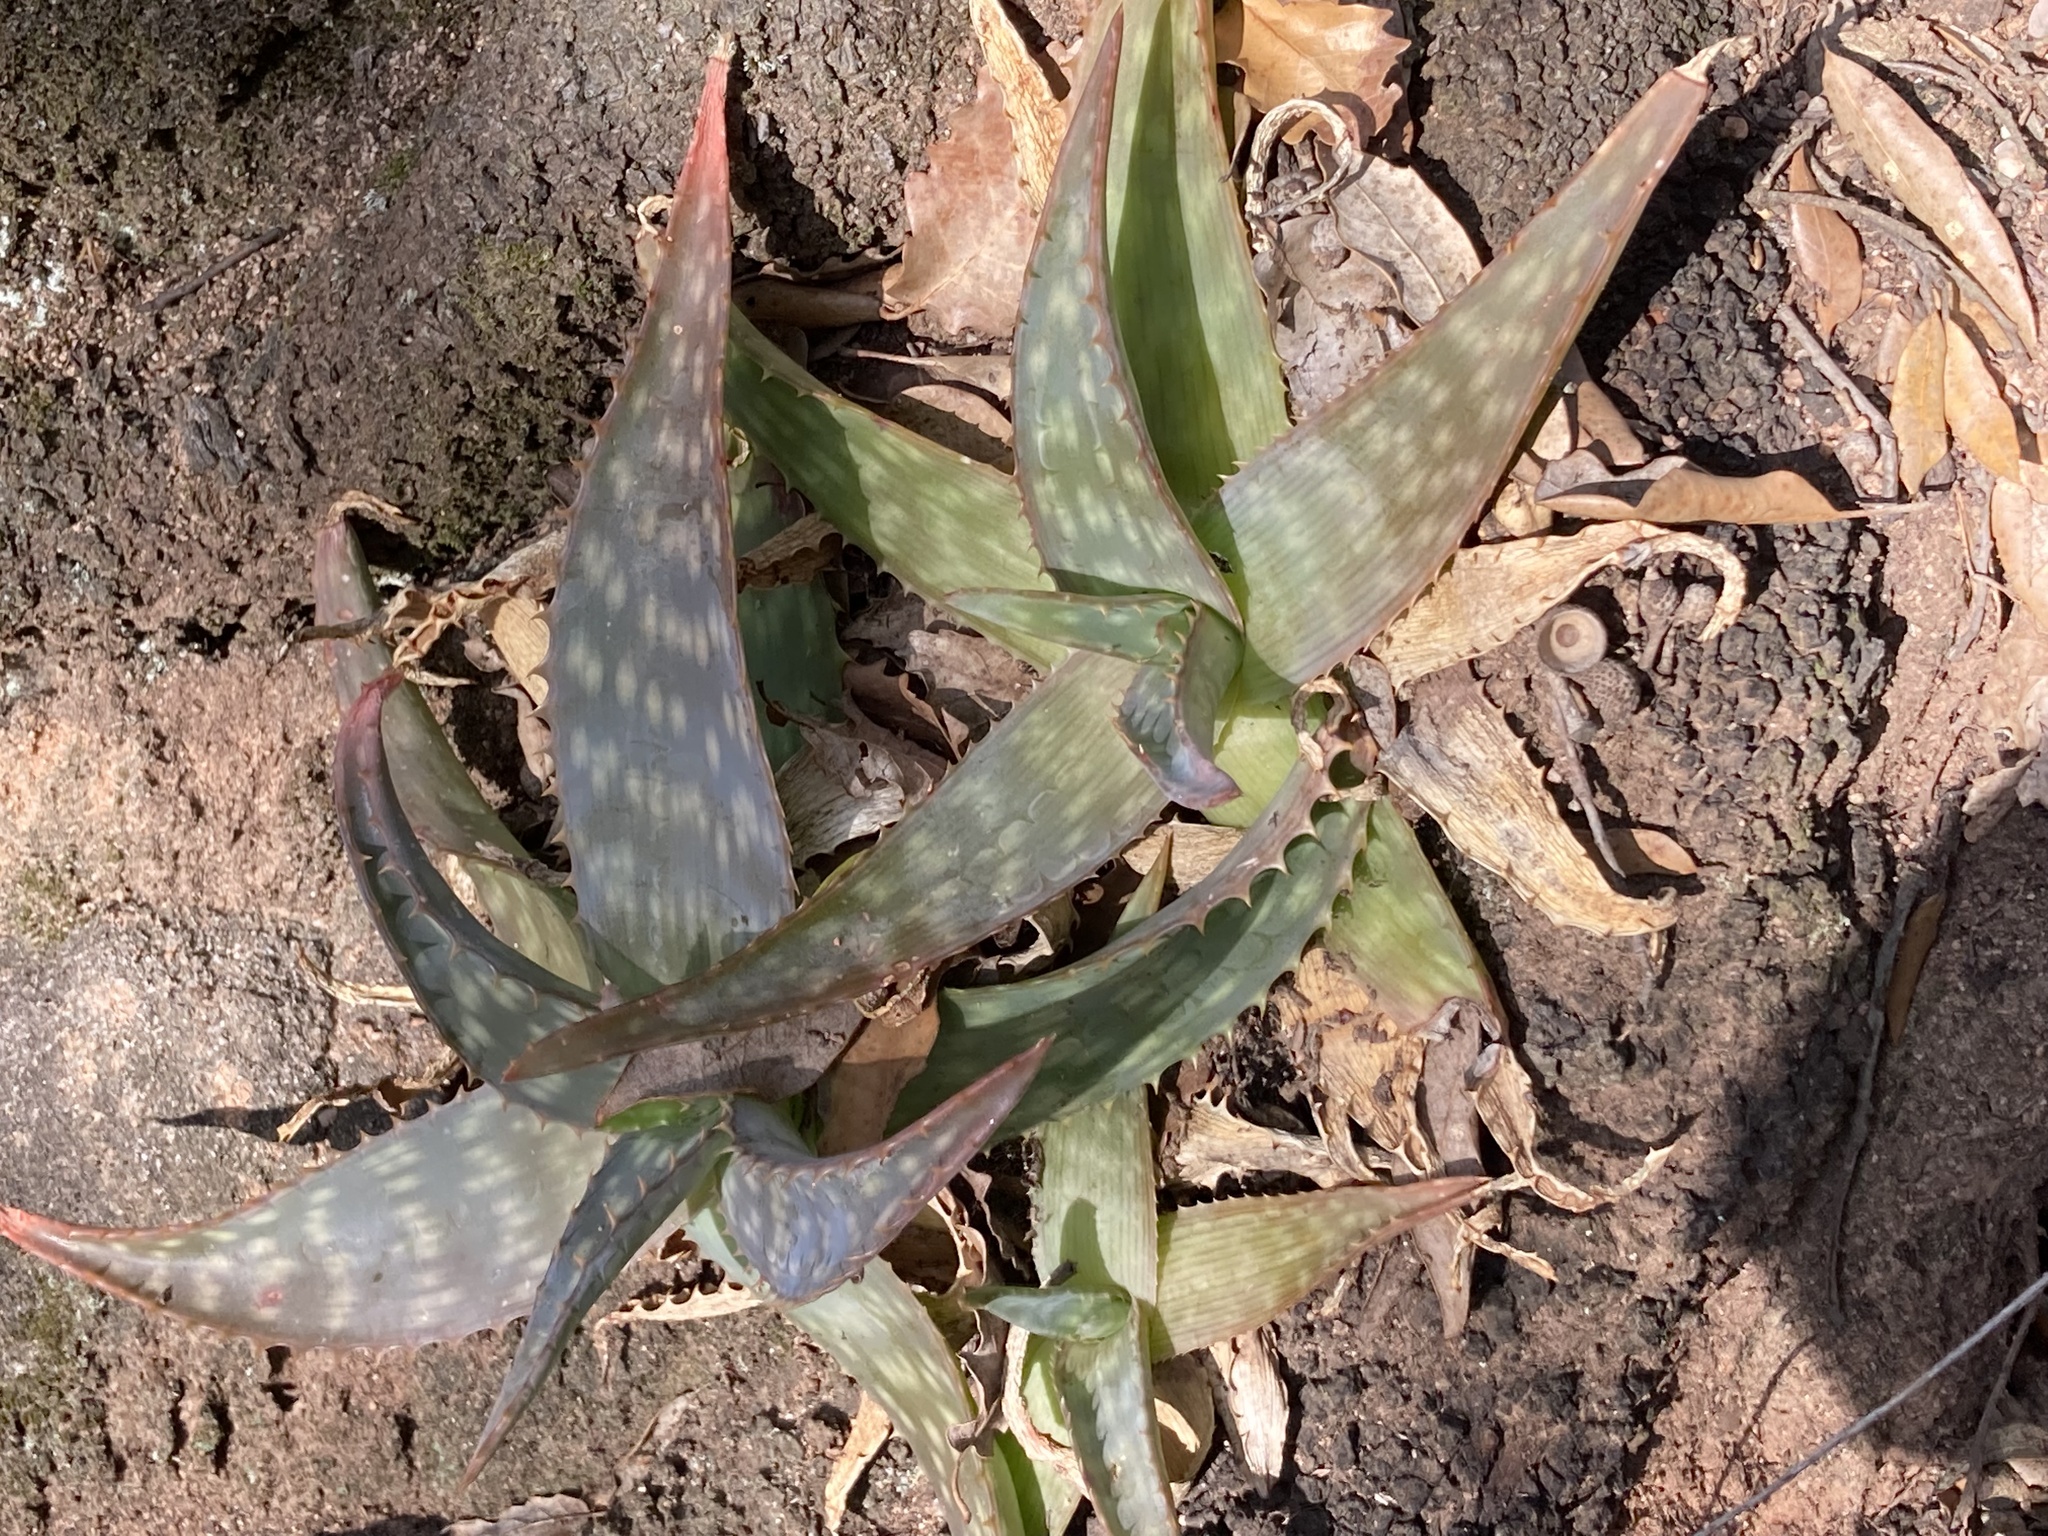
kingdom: Plantae
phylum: Tracheophyta
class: Liliopsida
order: Asparagales
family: Asphodelaceae
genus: Aloe
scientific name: Aloe maculata
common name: Broadleaf aloe
